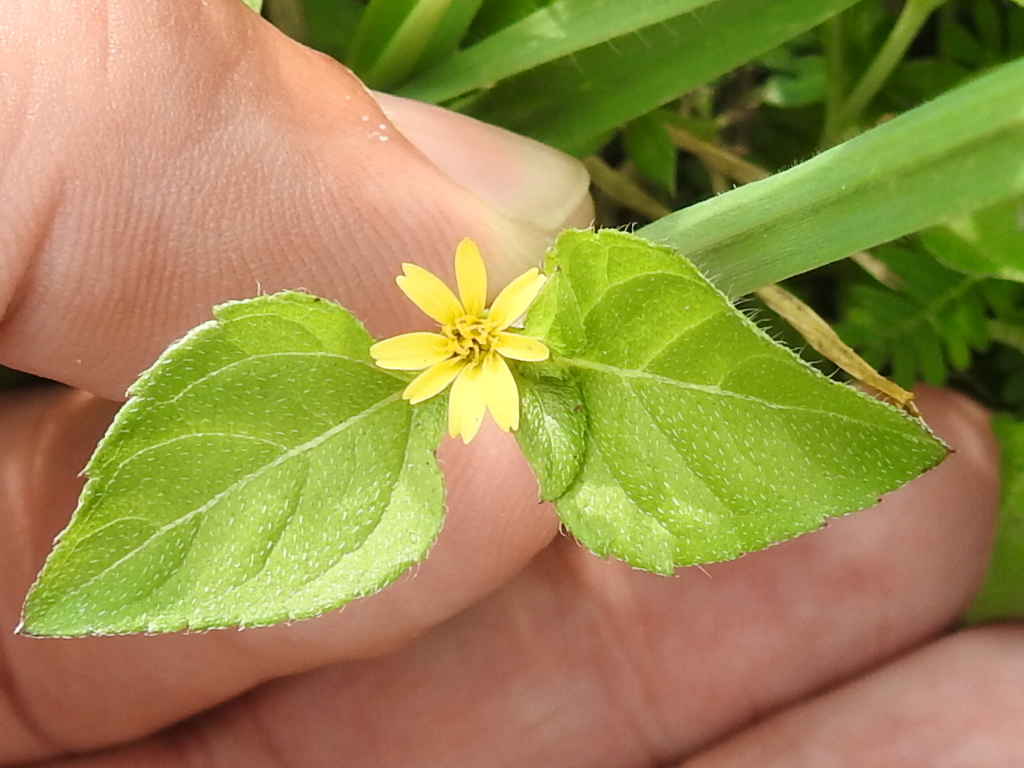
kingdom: Plantae
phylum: Tracheophyta
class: Magnoliopsida
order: Asterales
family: Asteraceae
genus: Calyptocarpus
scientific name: Calyptocarpus vialis
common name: Straggler daisy
